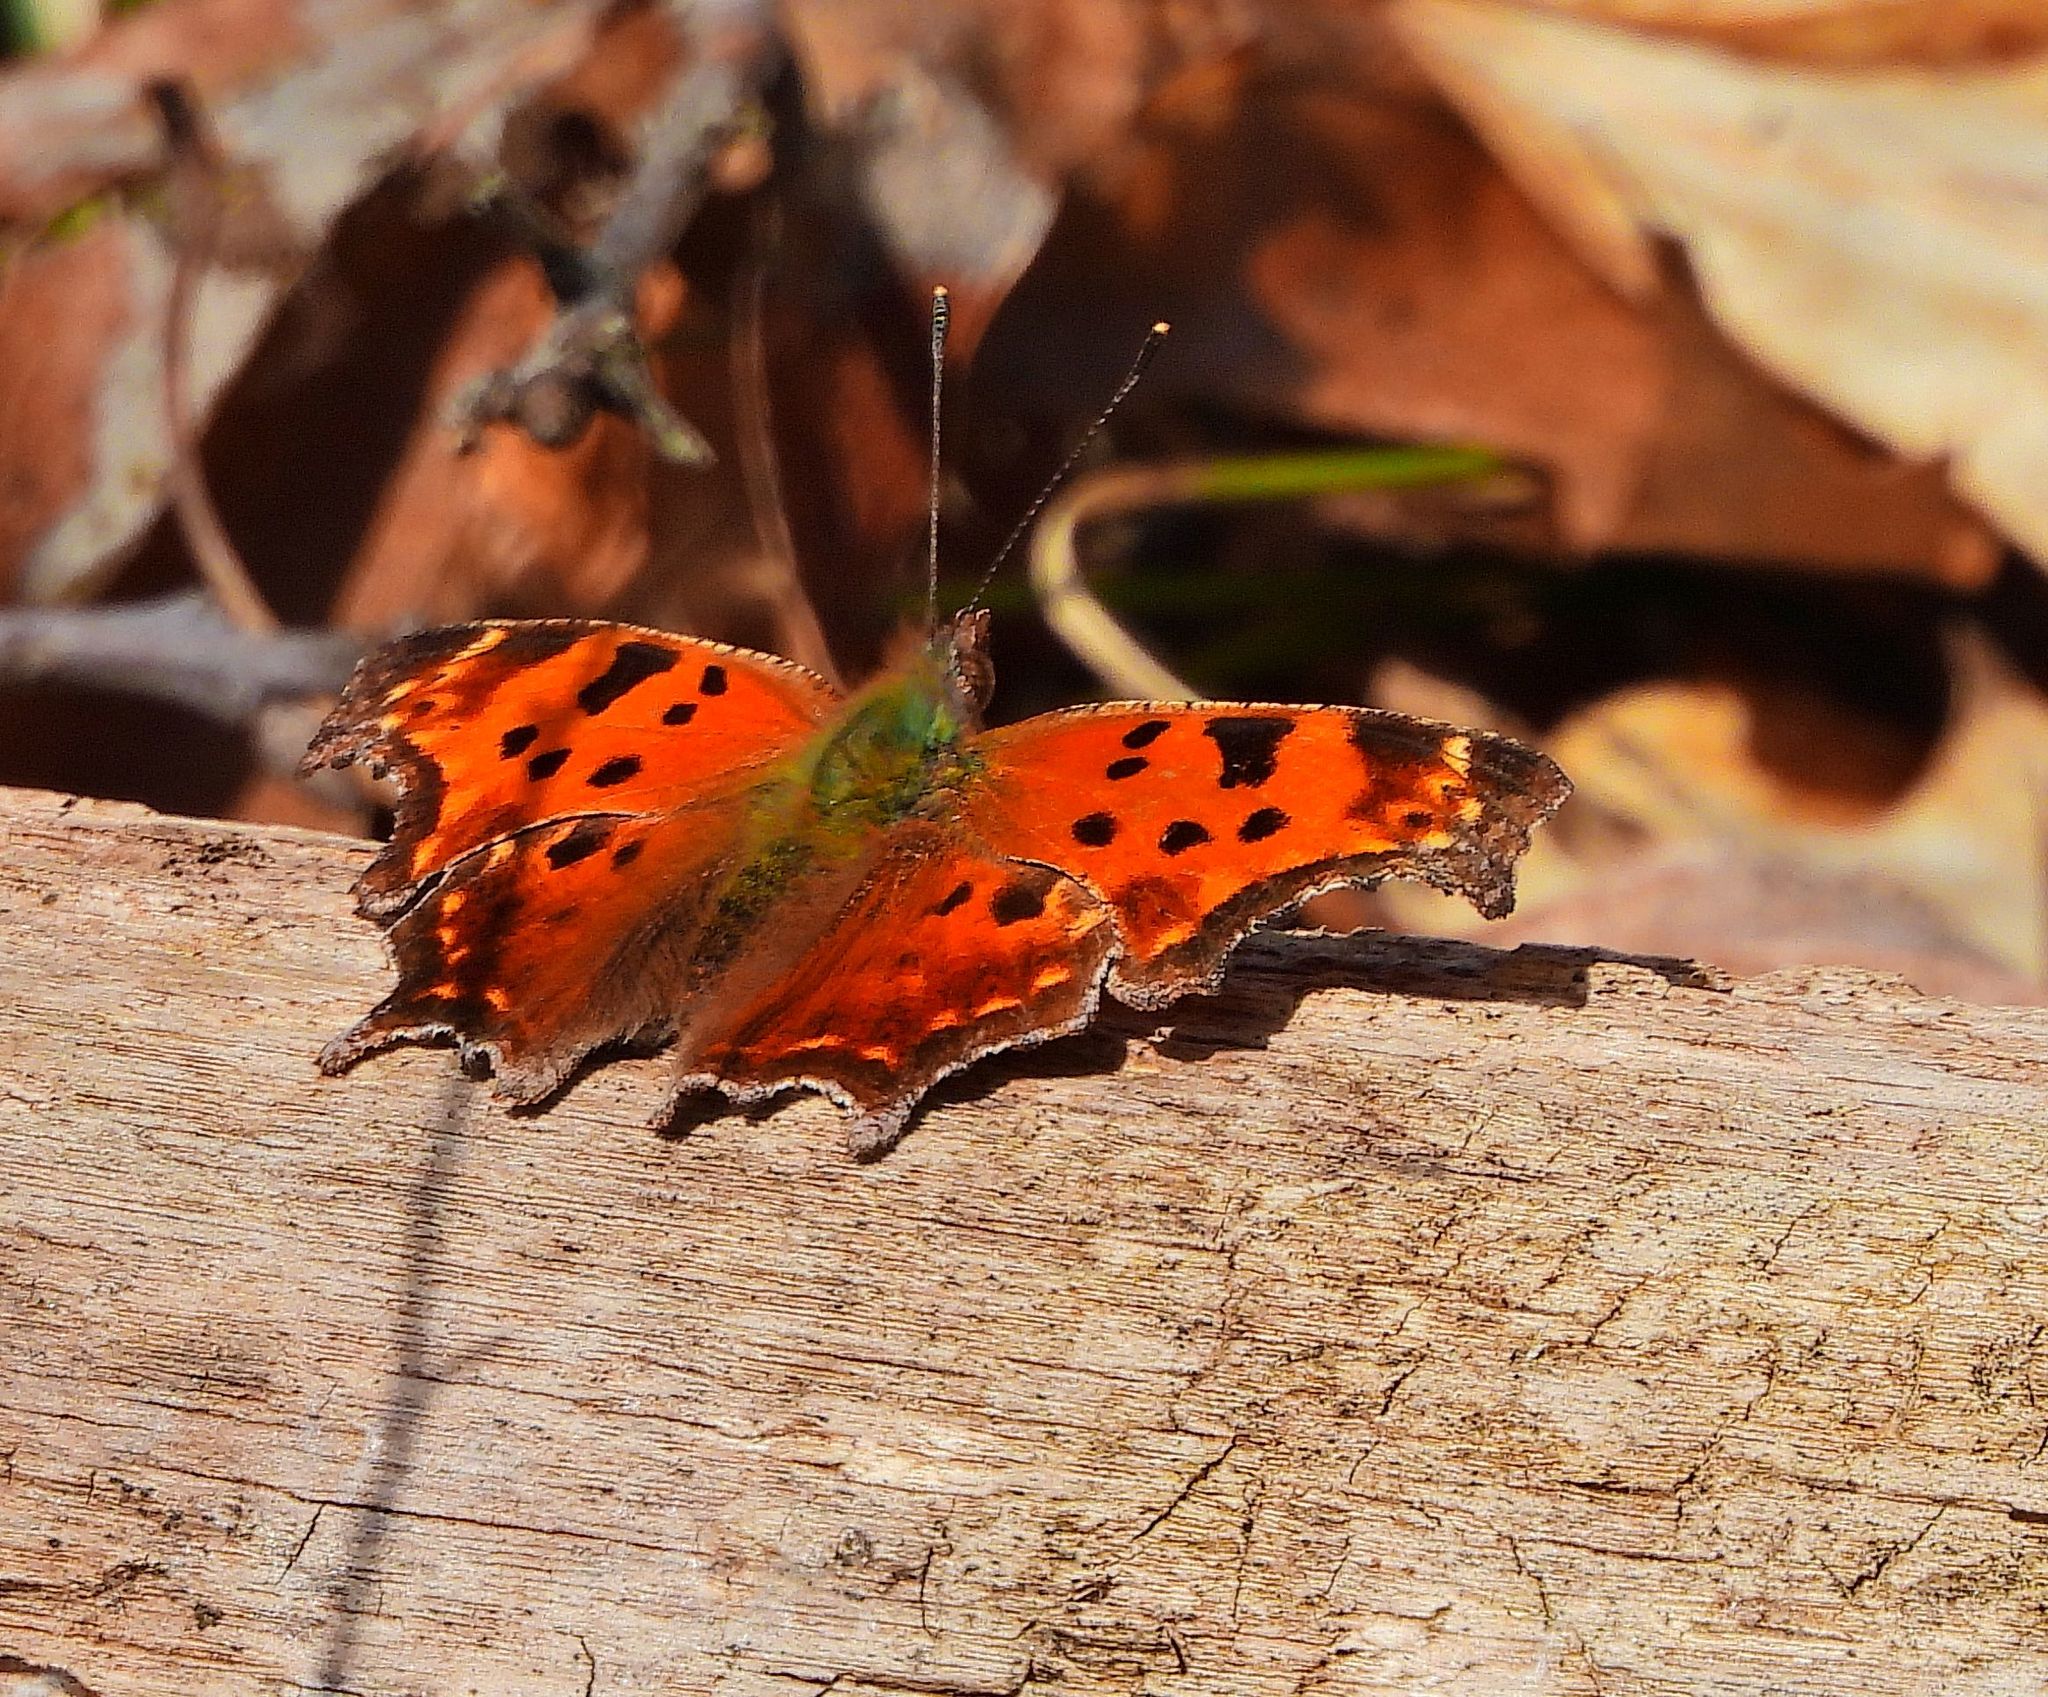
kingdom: Animalia
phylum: Arthropoda
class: Insecta
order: Lepidoptera
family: Nymphalidae
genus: Polygonia
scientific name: Polygonia comma
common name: Eastern comma
